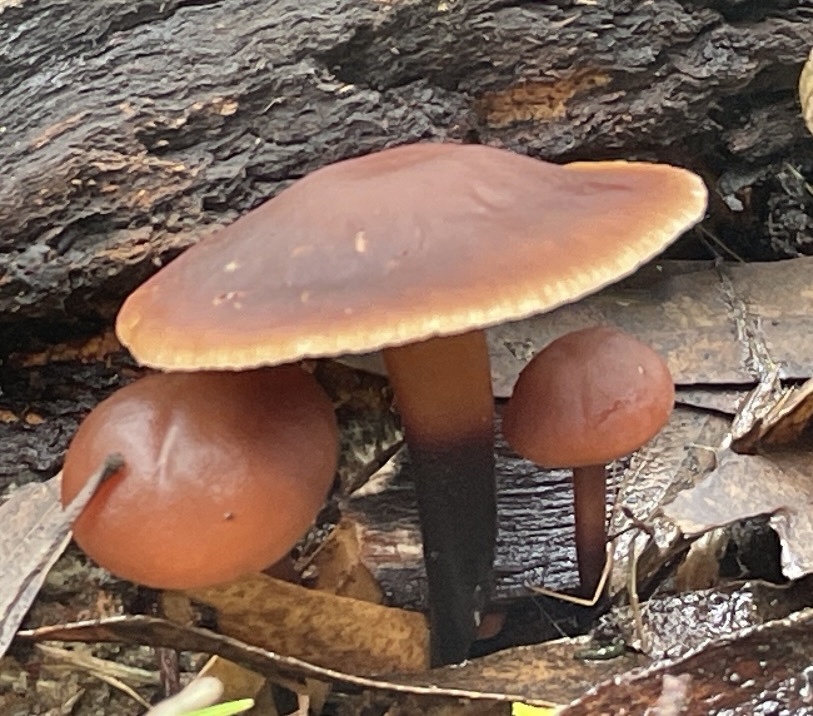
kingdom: Fungi
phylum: Basidiomycota
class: Agaricomycetes
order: Agaricales
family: Omphalotaceae
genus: Gymnopus
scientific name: Gymnopus brassicolens
